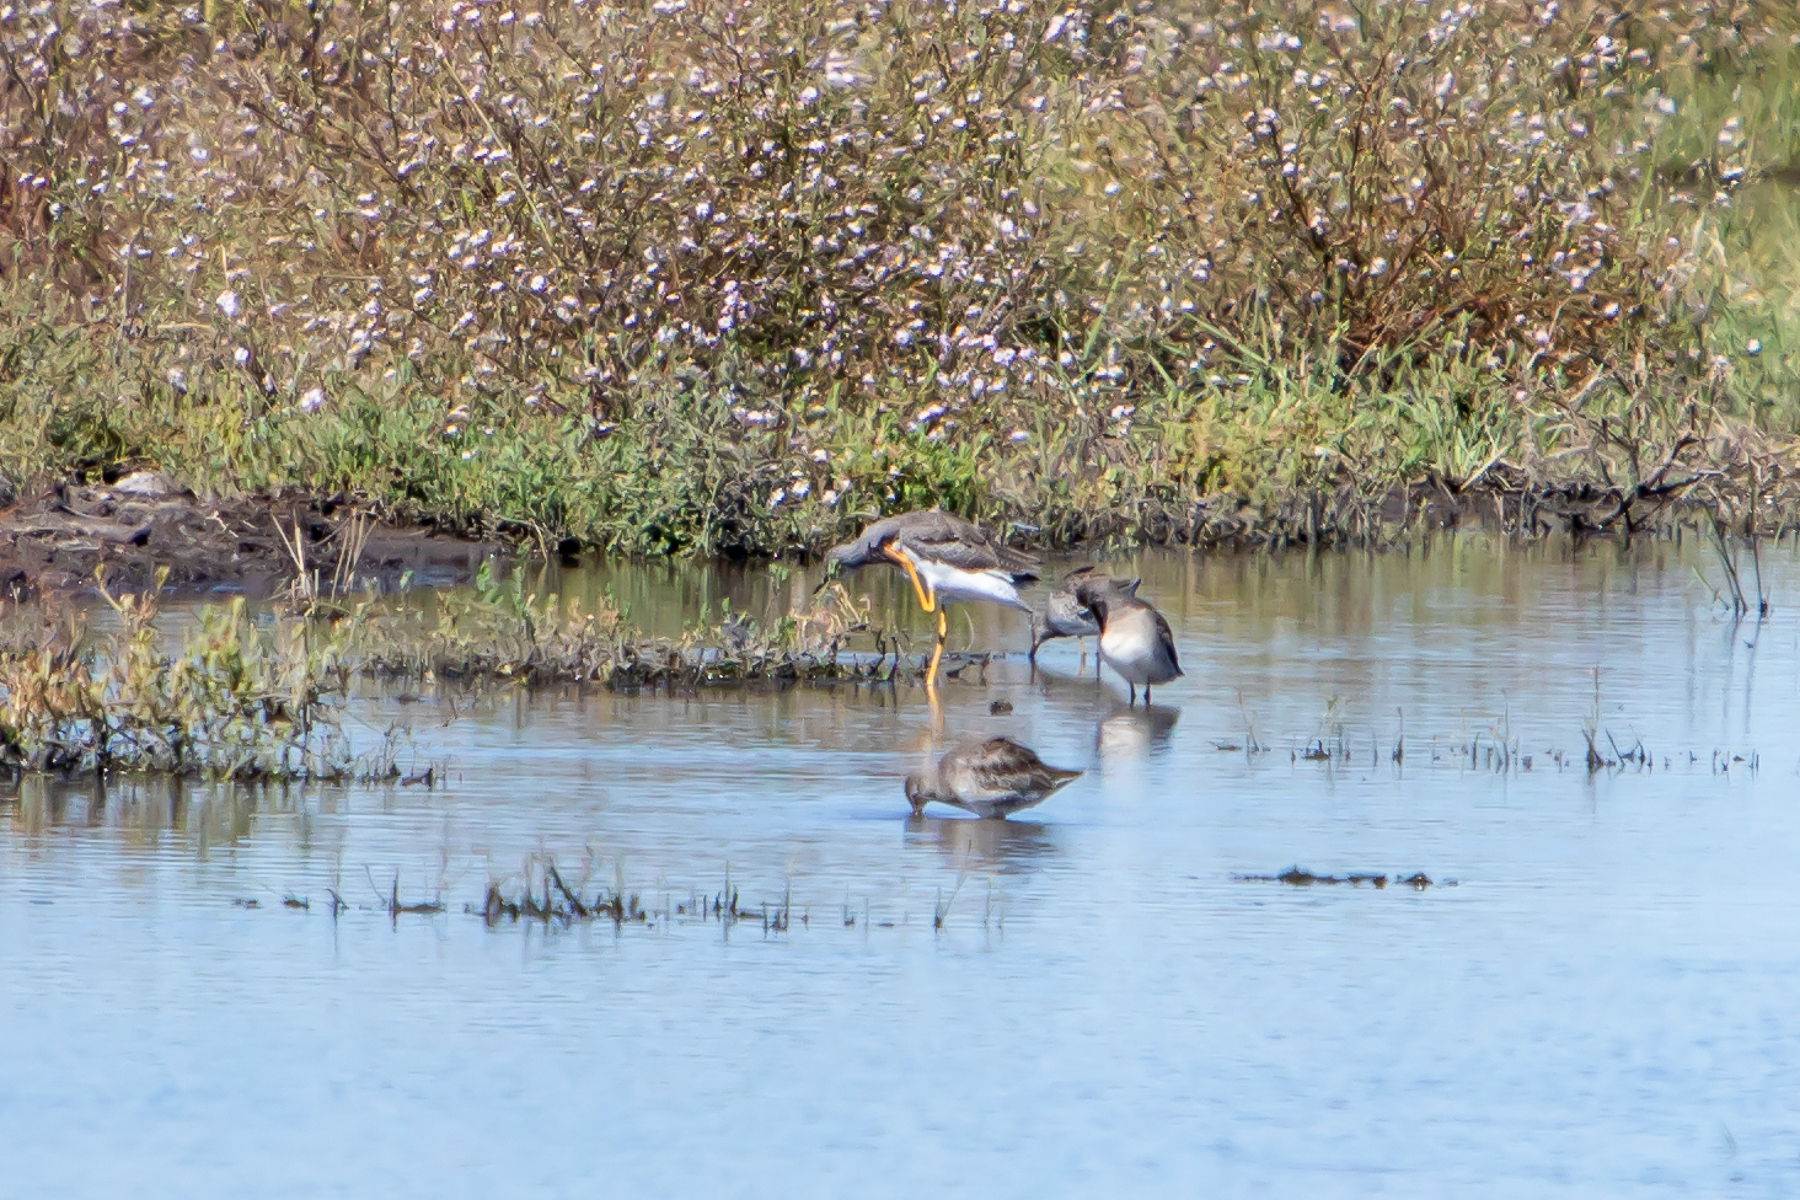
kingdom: Animalia
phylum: Chordata
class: Aves
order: Charadriiformes
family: Scolopacidae
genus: Tringa
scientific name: Tringa melanoleuca
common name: Greater yellowlegs
